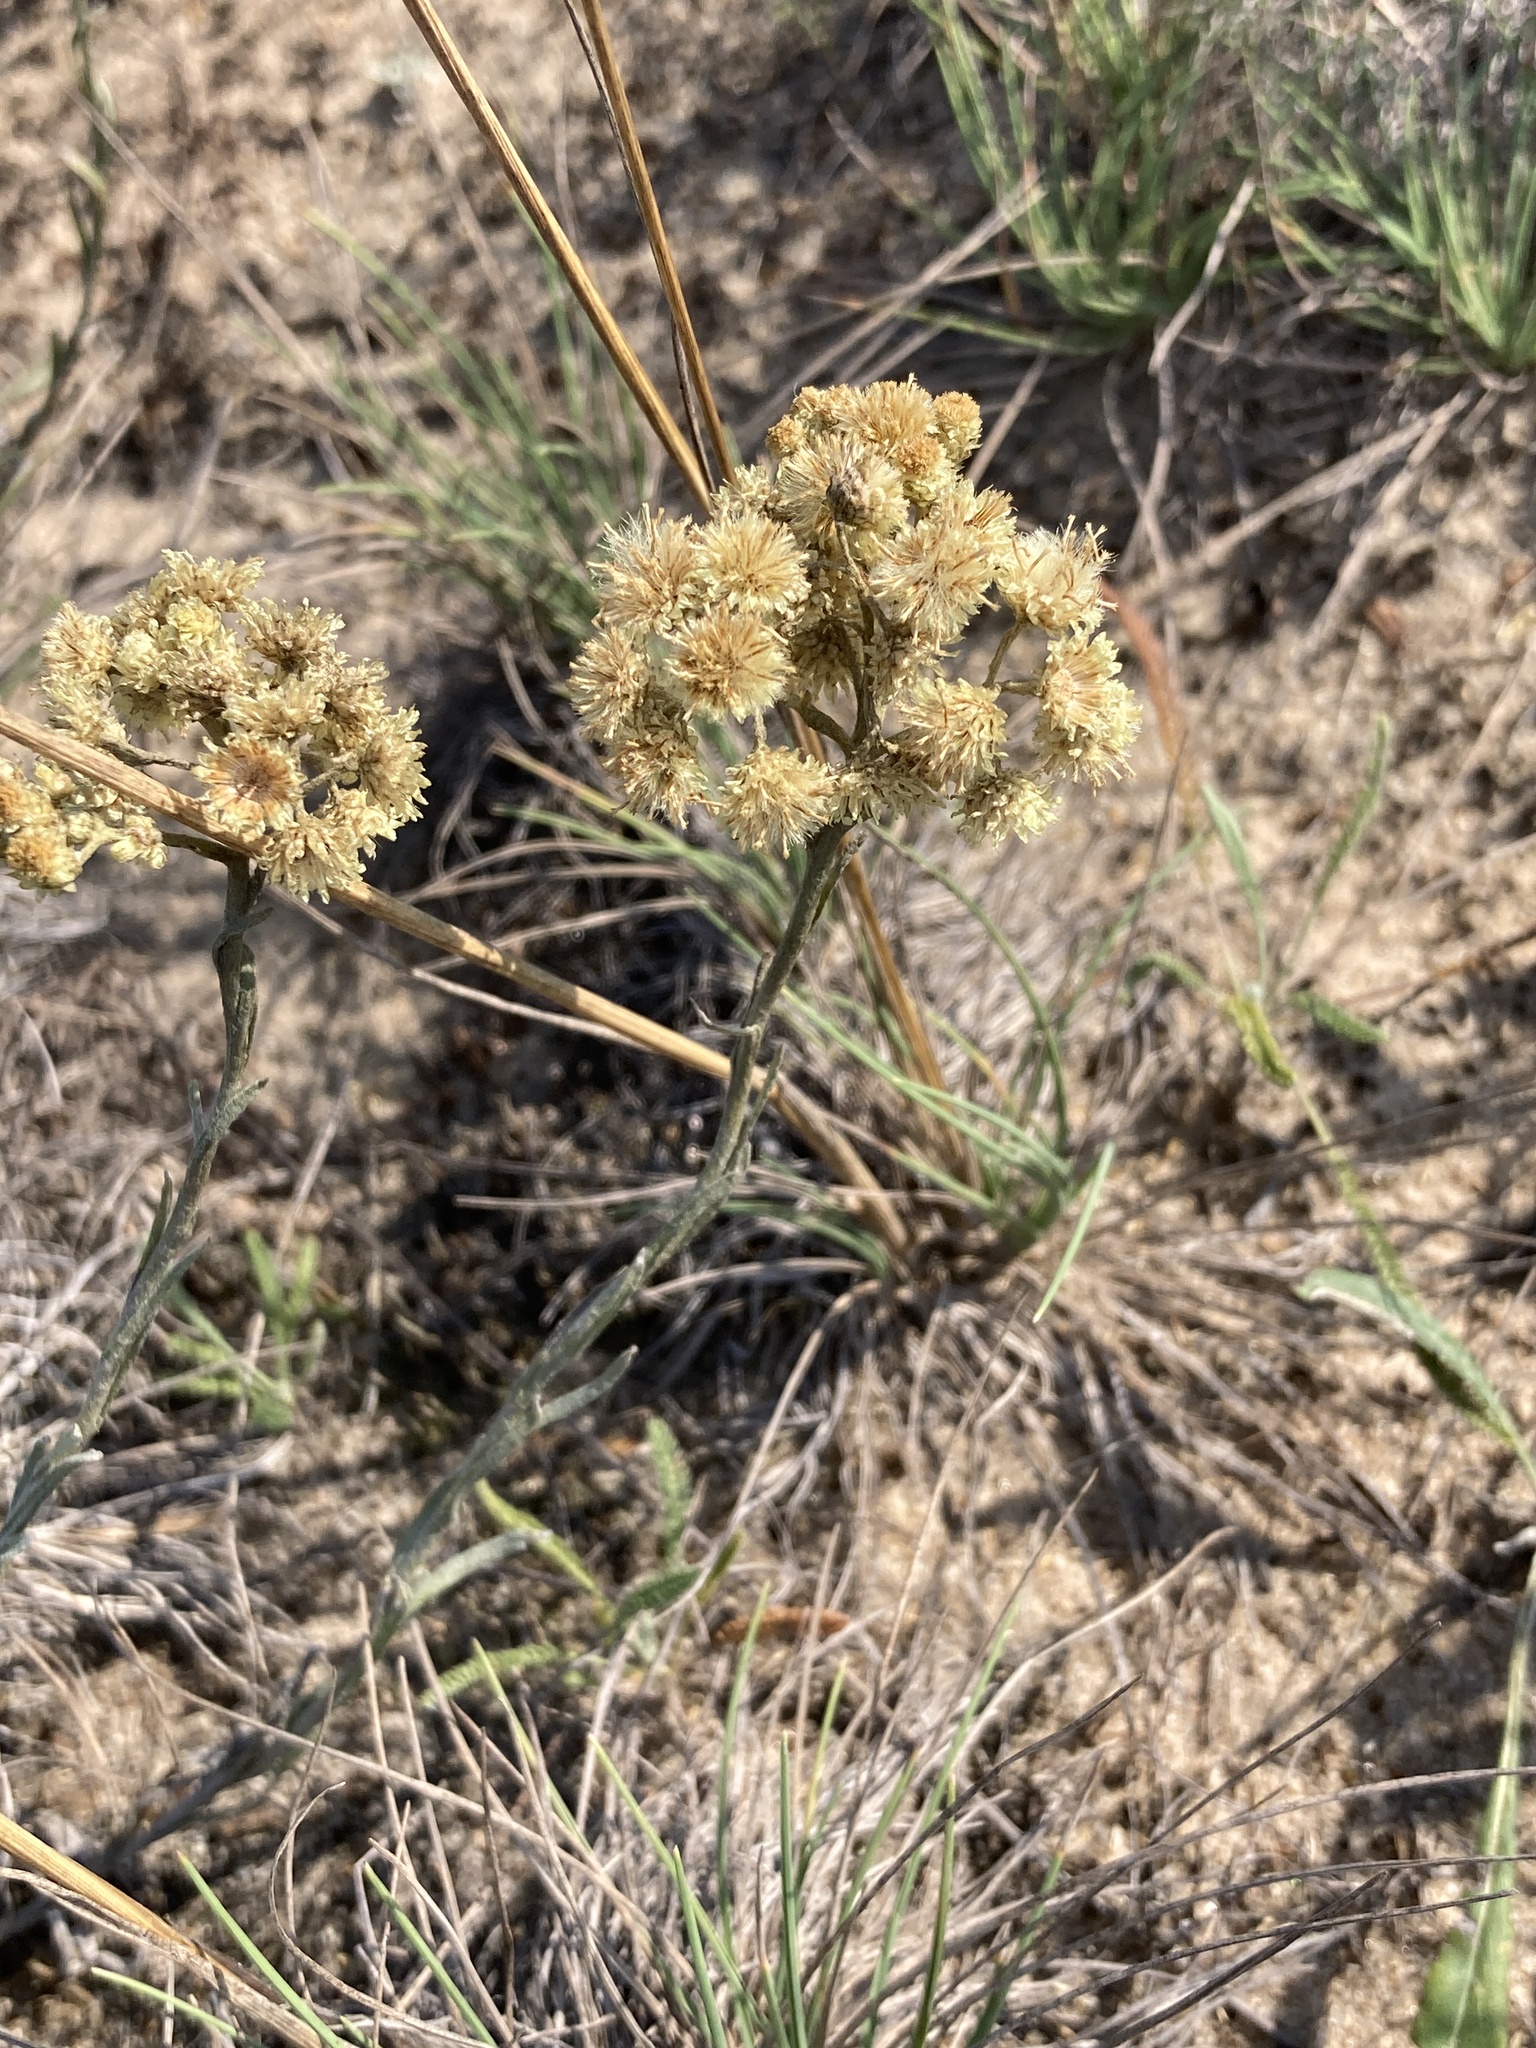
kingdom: Plantae
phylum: Tracheophyta
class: Magnoliopsida
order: Asterales
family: Asteraceae
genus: Helichrysum
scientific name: Helichrysum arenarium
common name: Strawflower
